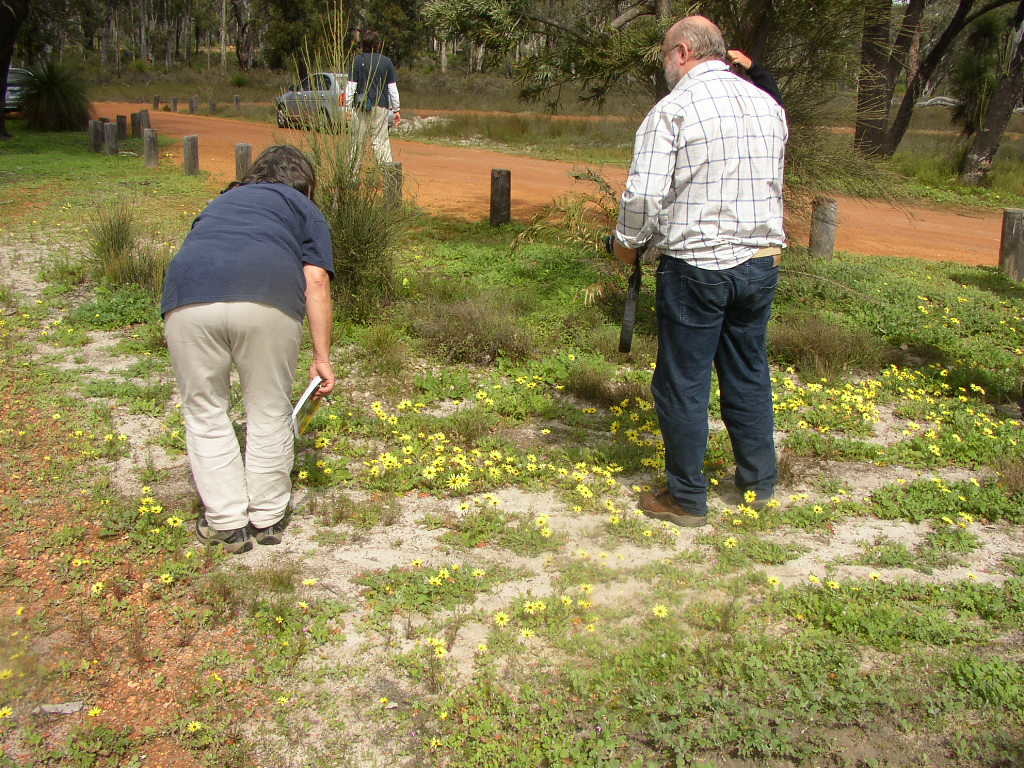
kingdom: Plantae
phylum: Tracheophyta
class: Magnoliopsida
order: Asterales
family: Asteraceae
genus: Arctotheca
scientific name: Arctotheca calendula
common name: Capeweed
